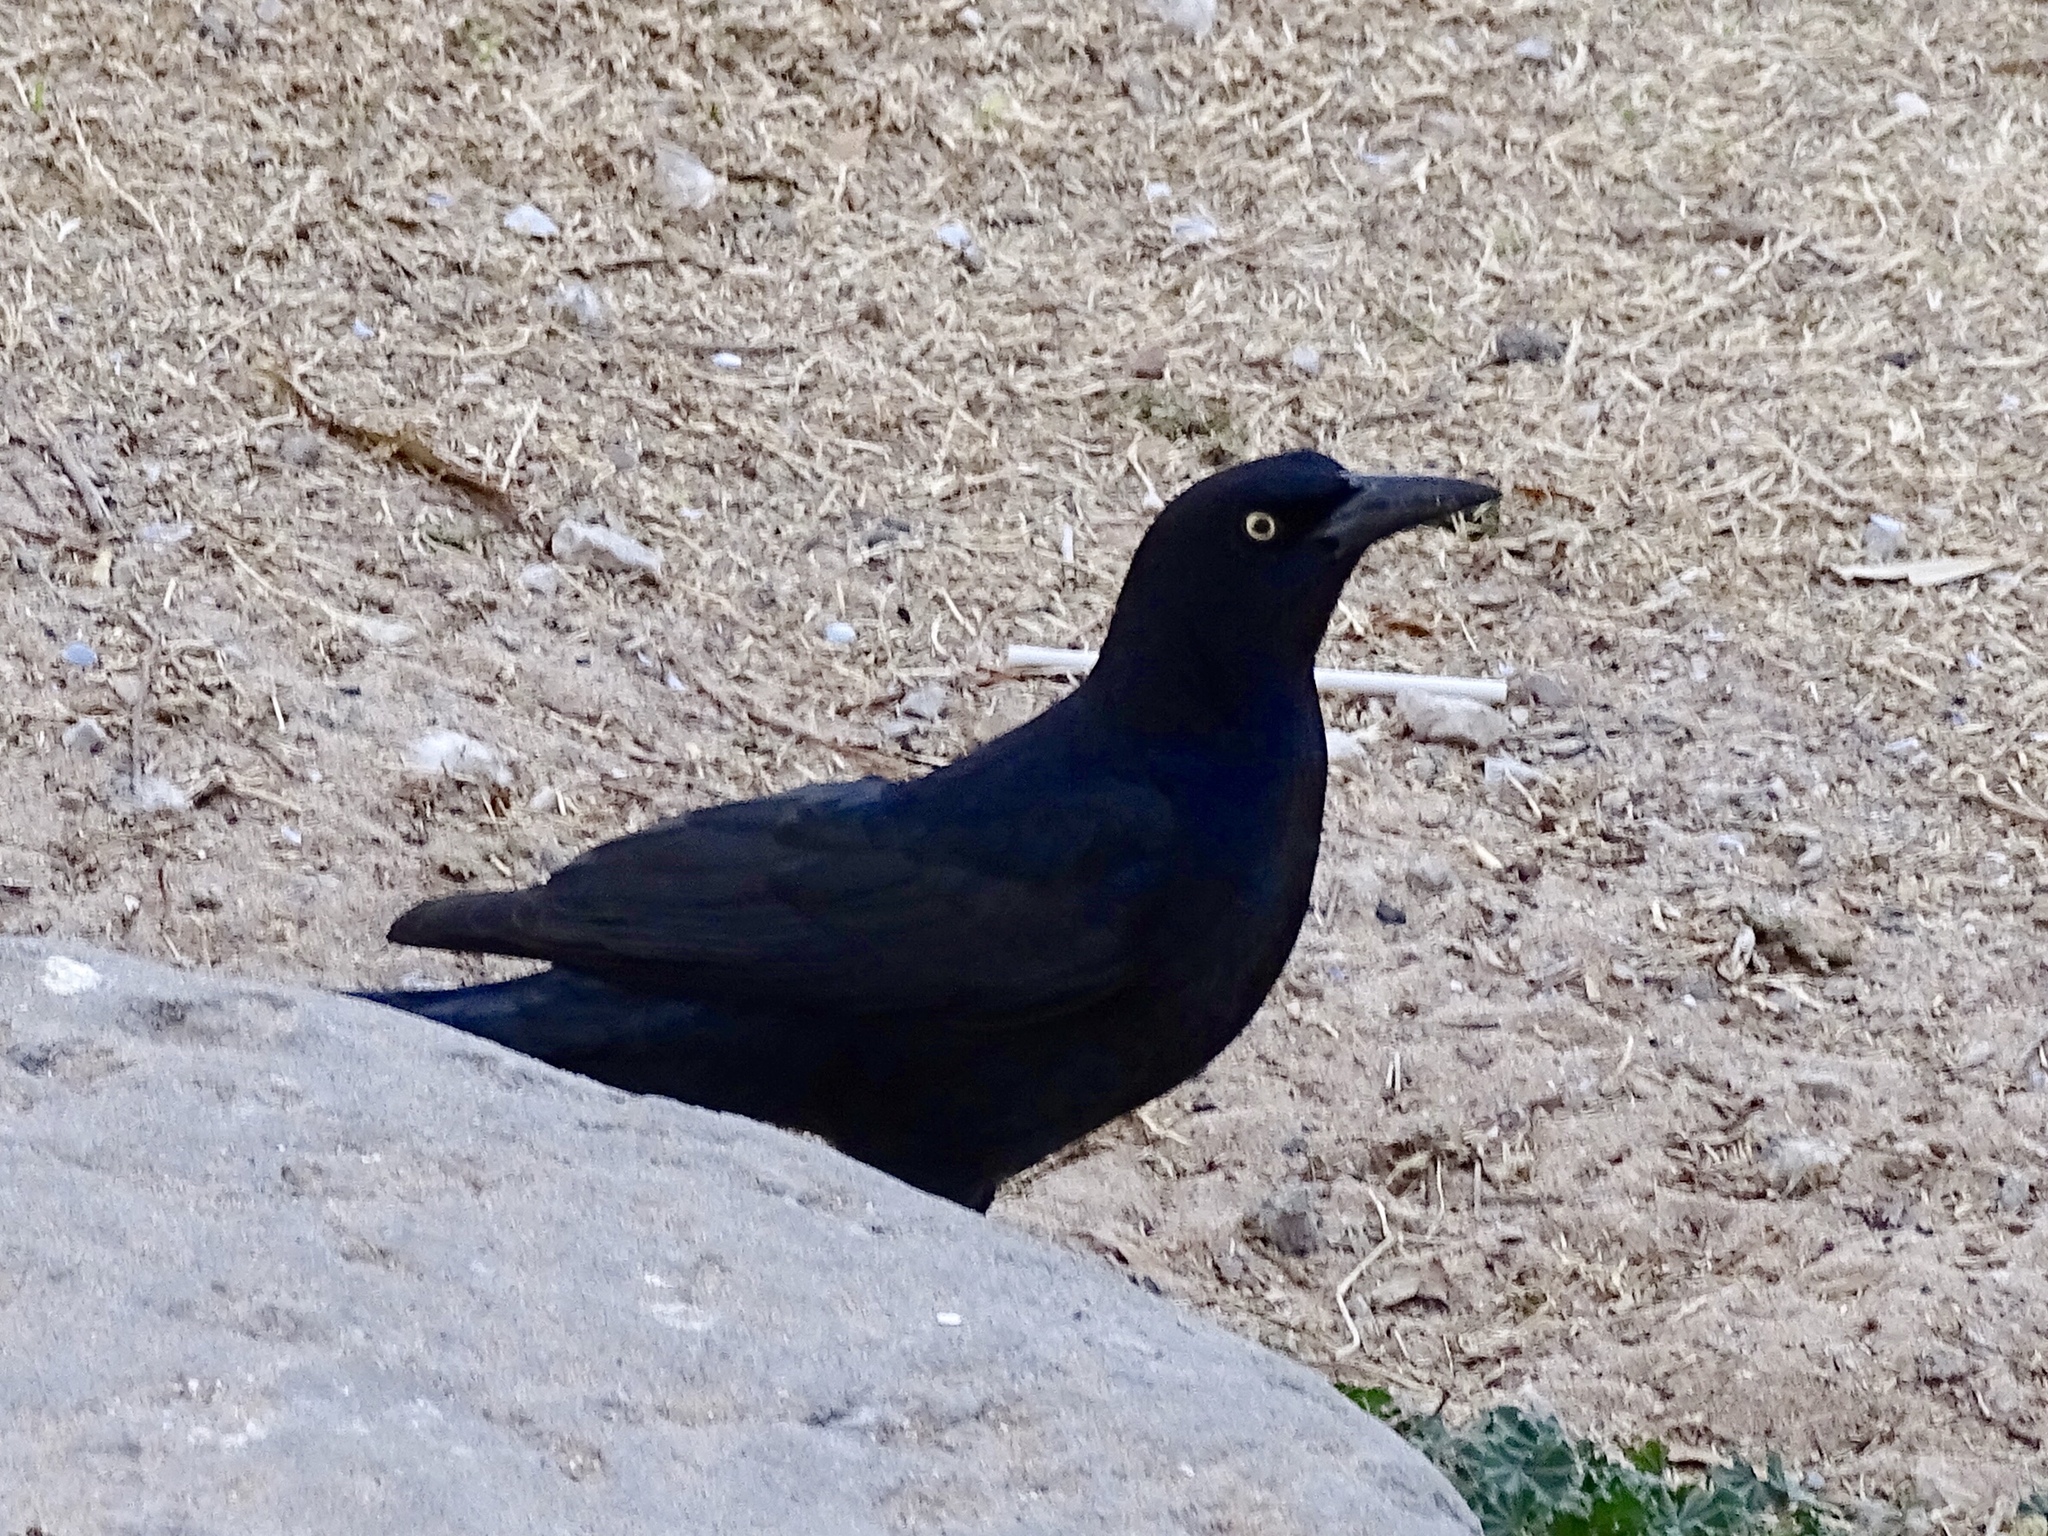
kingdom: Animalia
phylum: Chordata
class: Aves
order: Passeriformes
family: Icteridae
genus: Quiscalus
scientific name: Quiscalus mexicanus
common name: Great-tailed grackle
